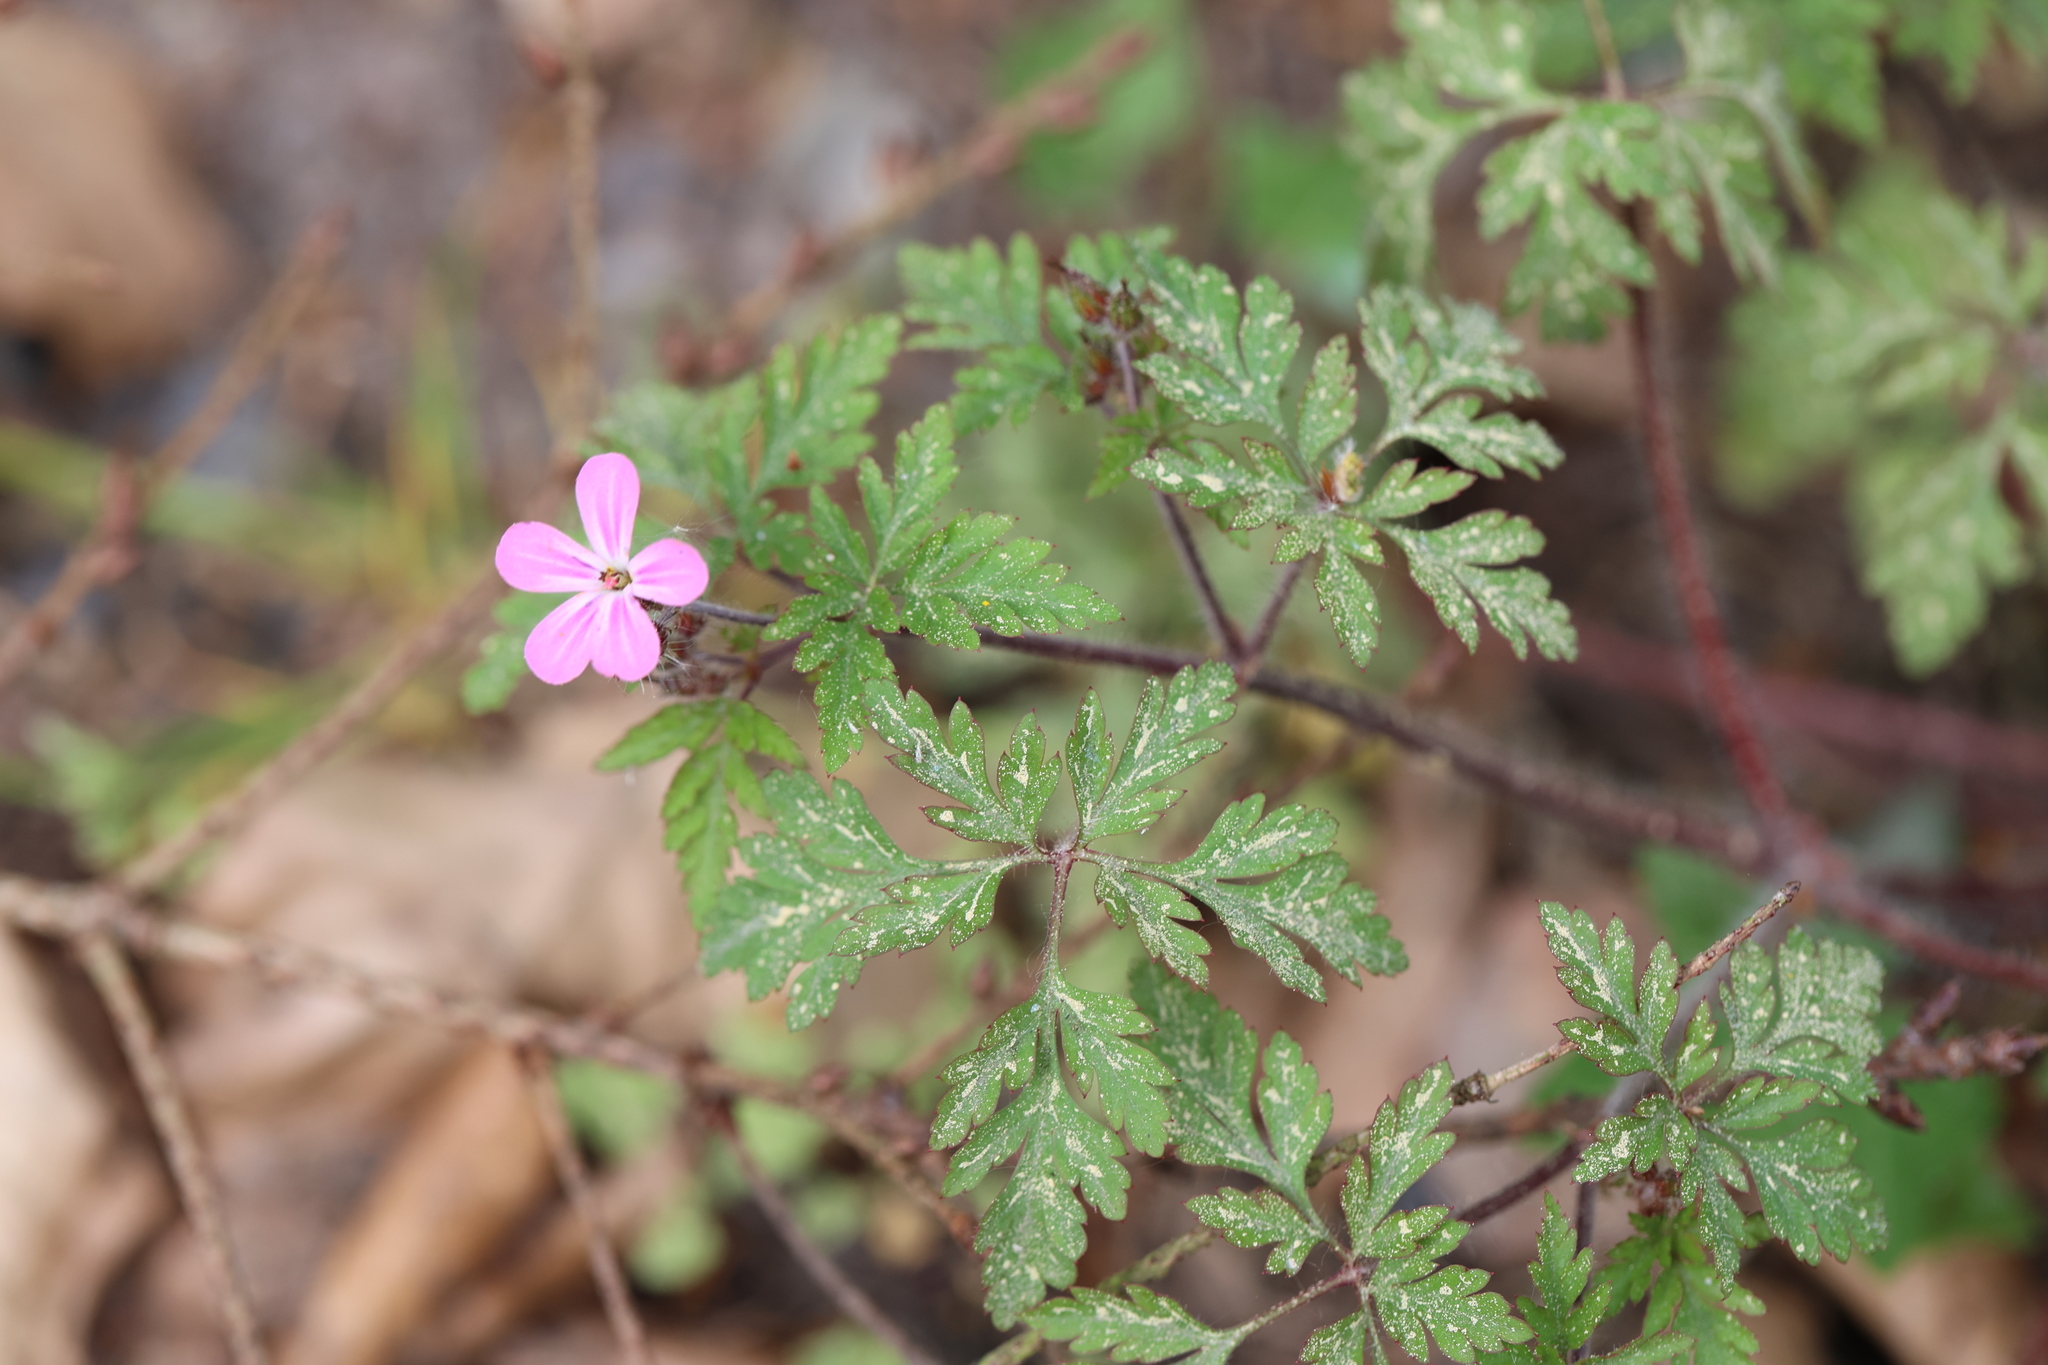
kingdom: Plantae
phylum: Tracheophyta
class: Magnoliopsida
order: Geraniales
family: Geraniaceae
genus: Geranium
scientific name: Geranium robertianum
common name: Herb-robert
